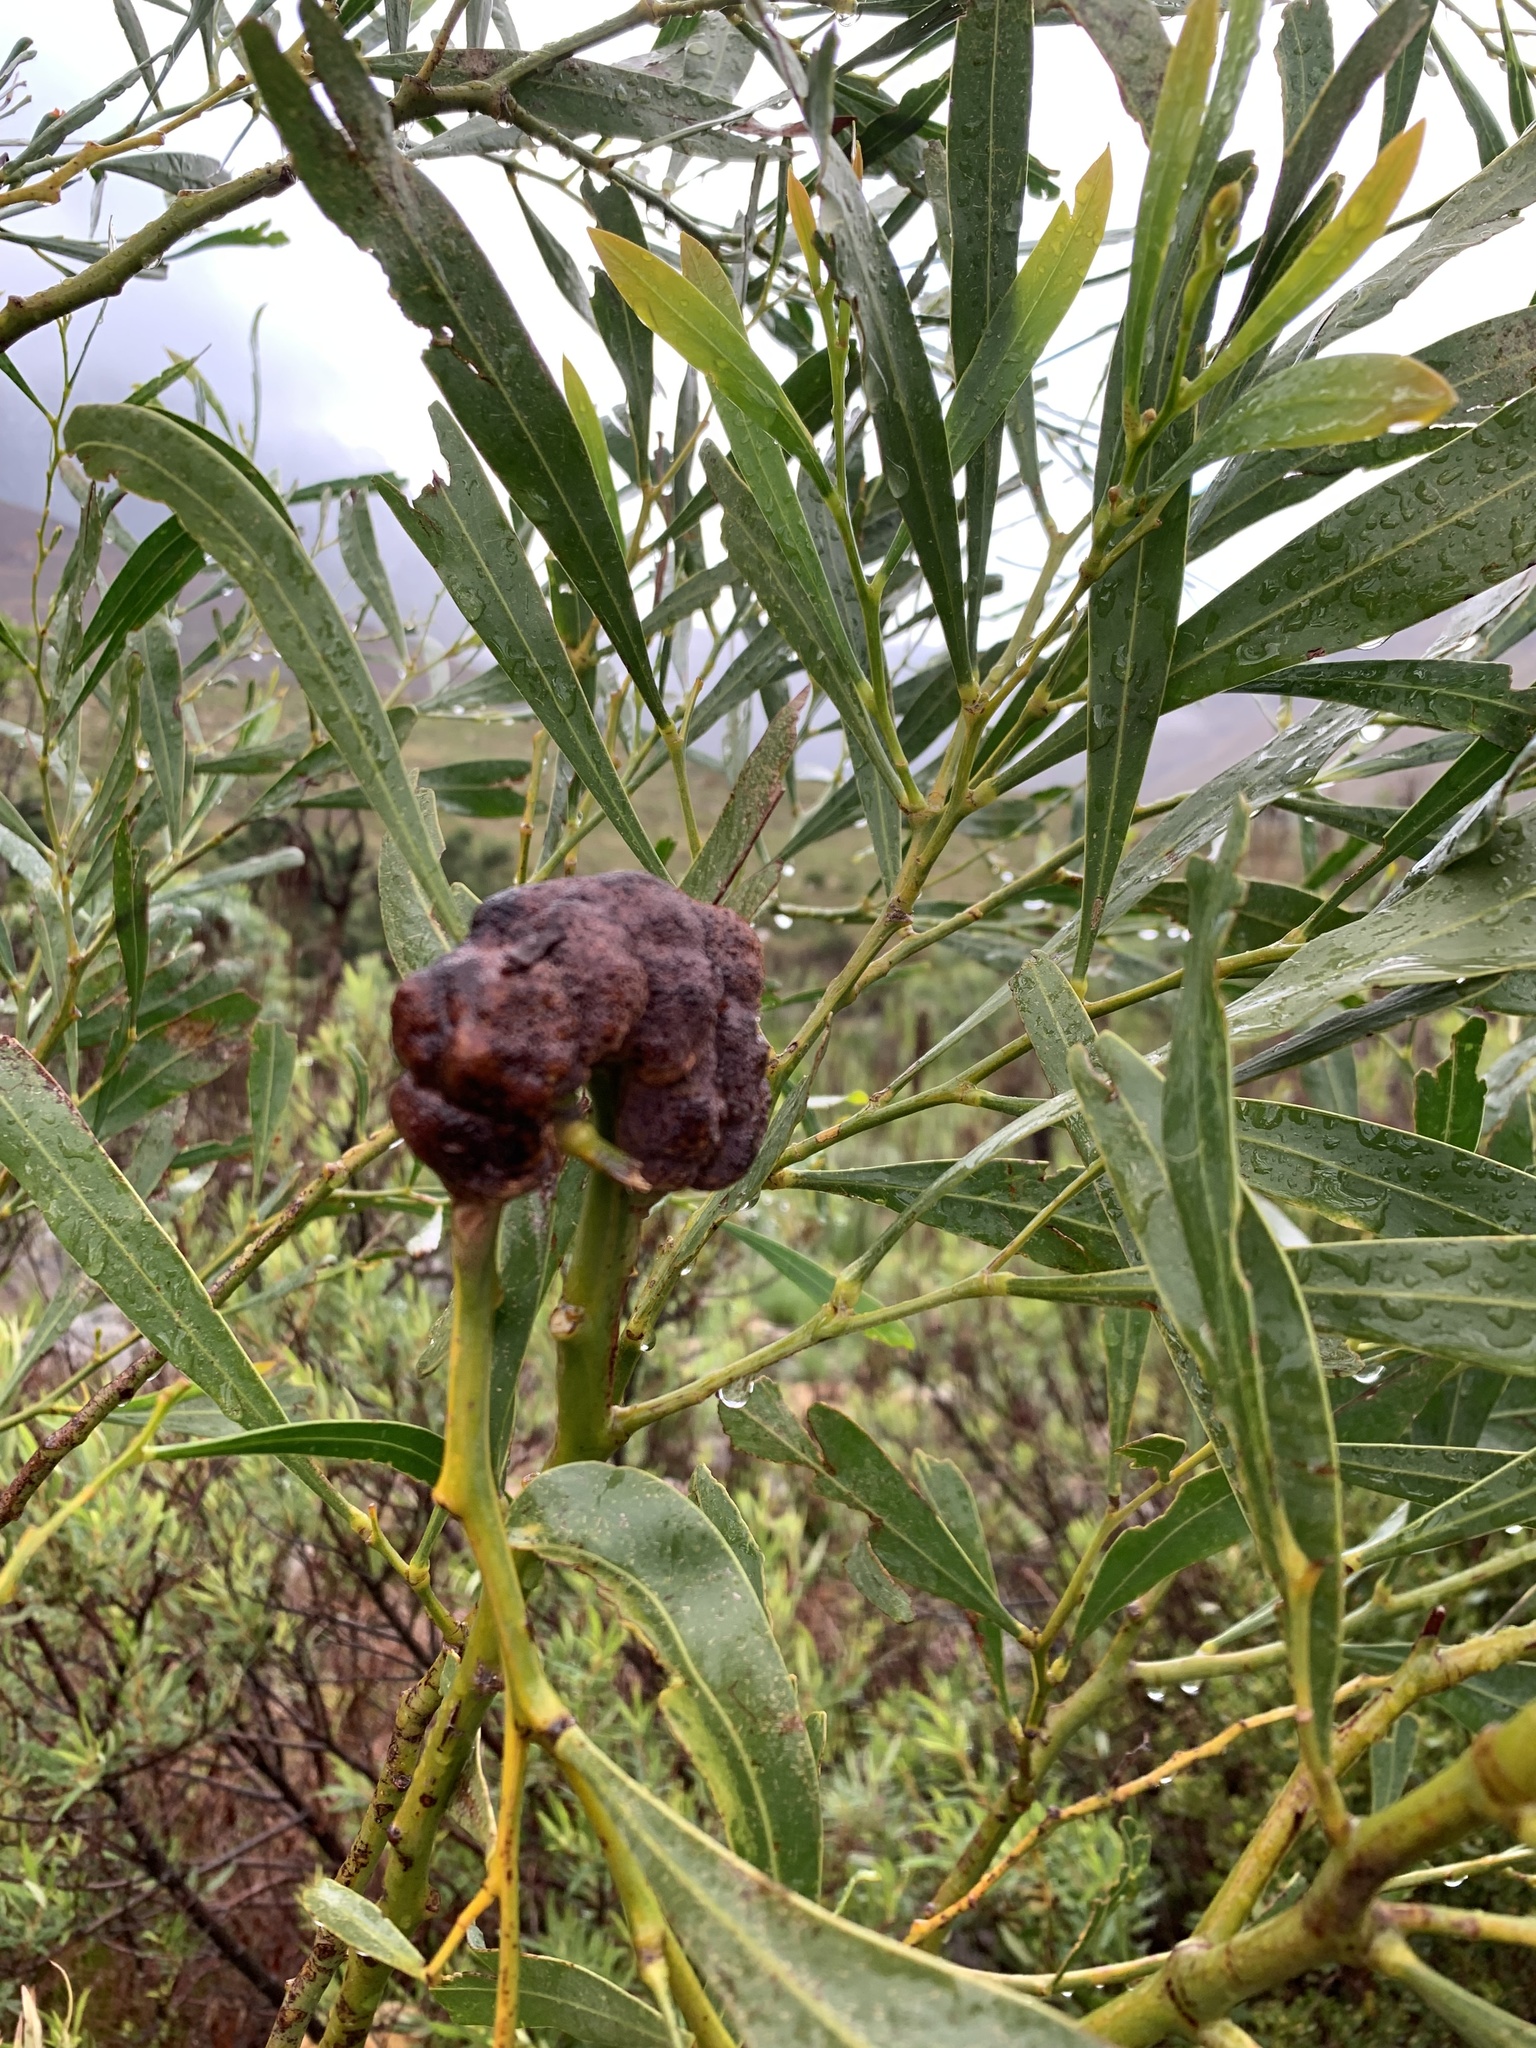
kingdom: Fungi
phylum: Basidiomycota
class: Pucciniomycetes
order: Pucciniales
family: Uromycladiaceae
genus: Uromycladium
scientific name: Uromycladium morrisii
